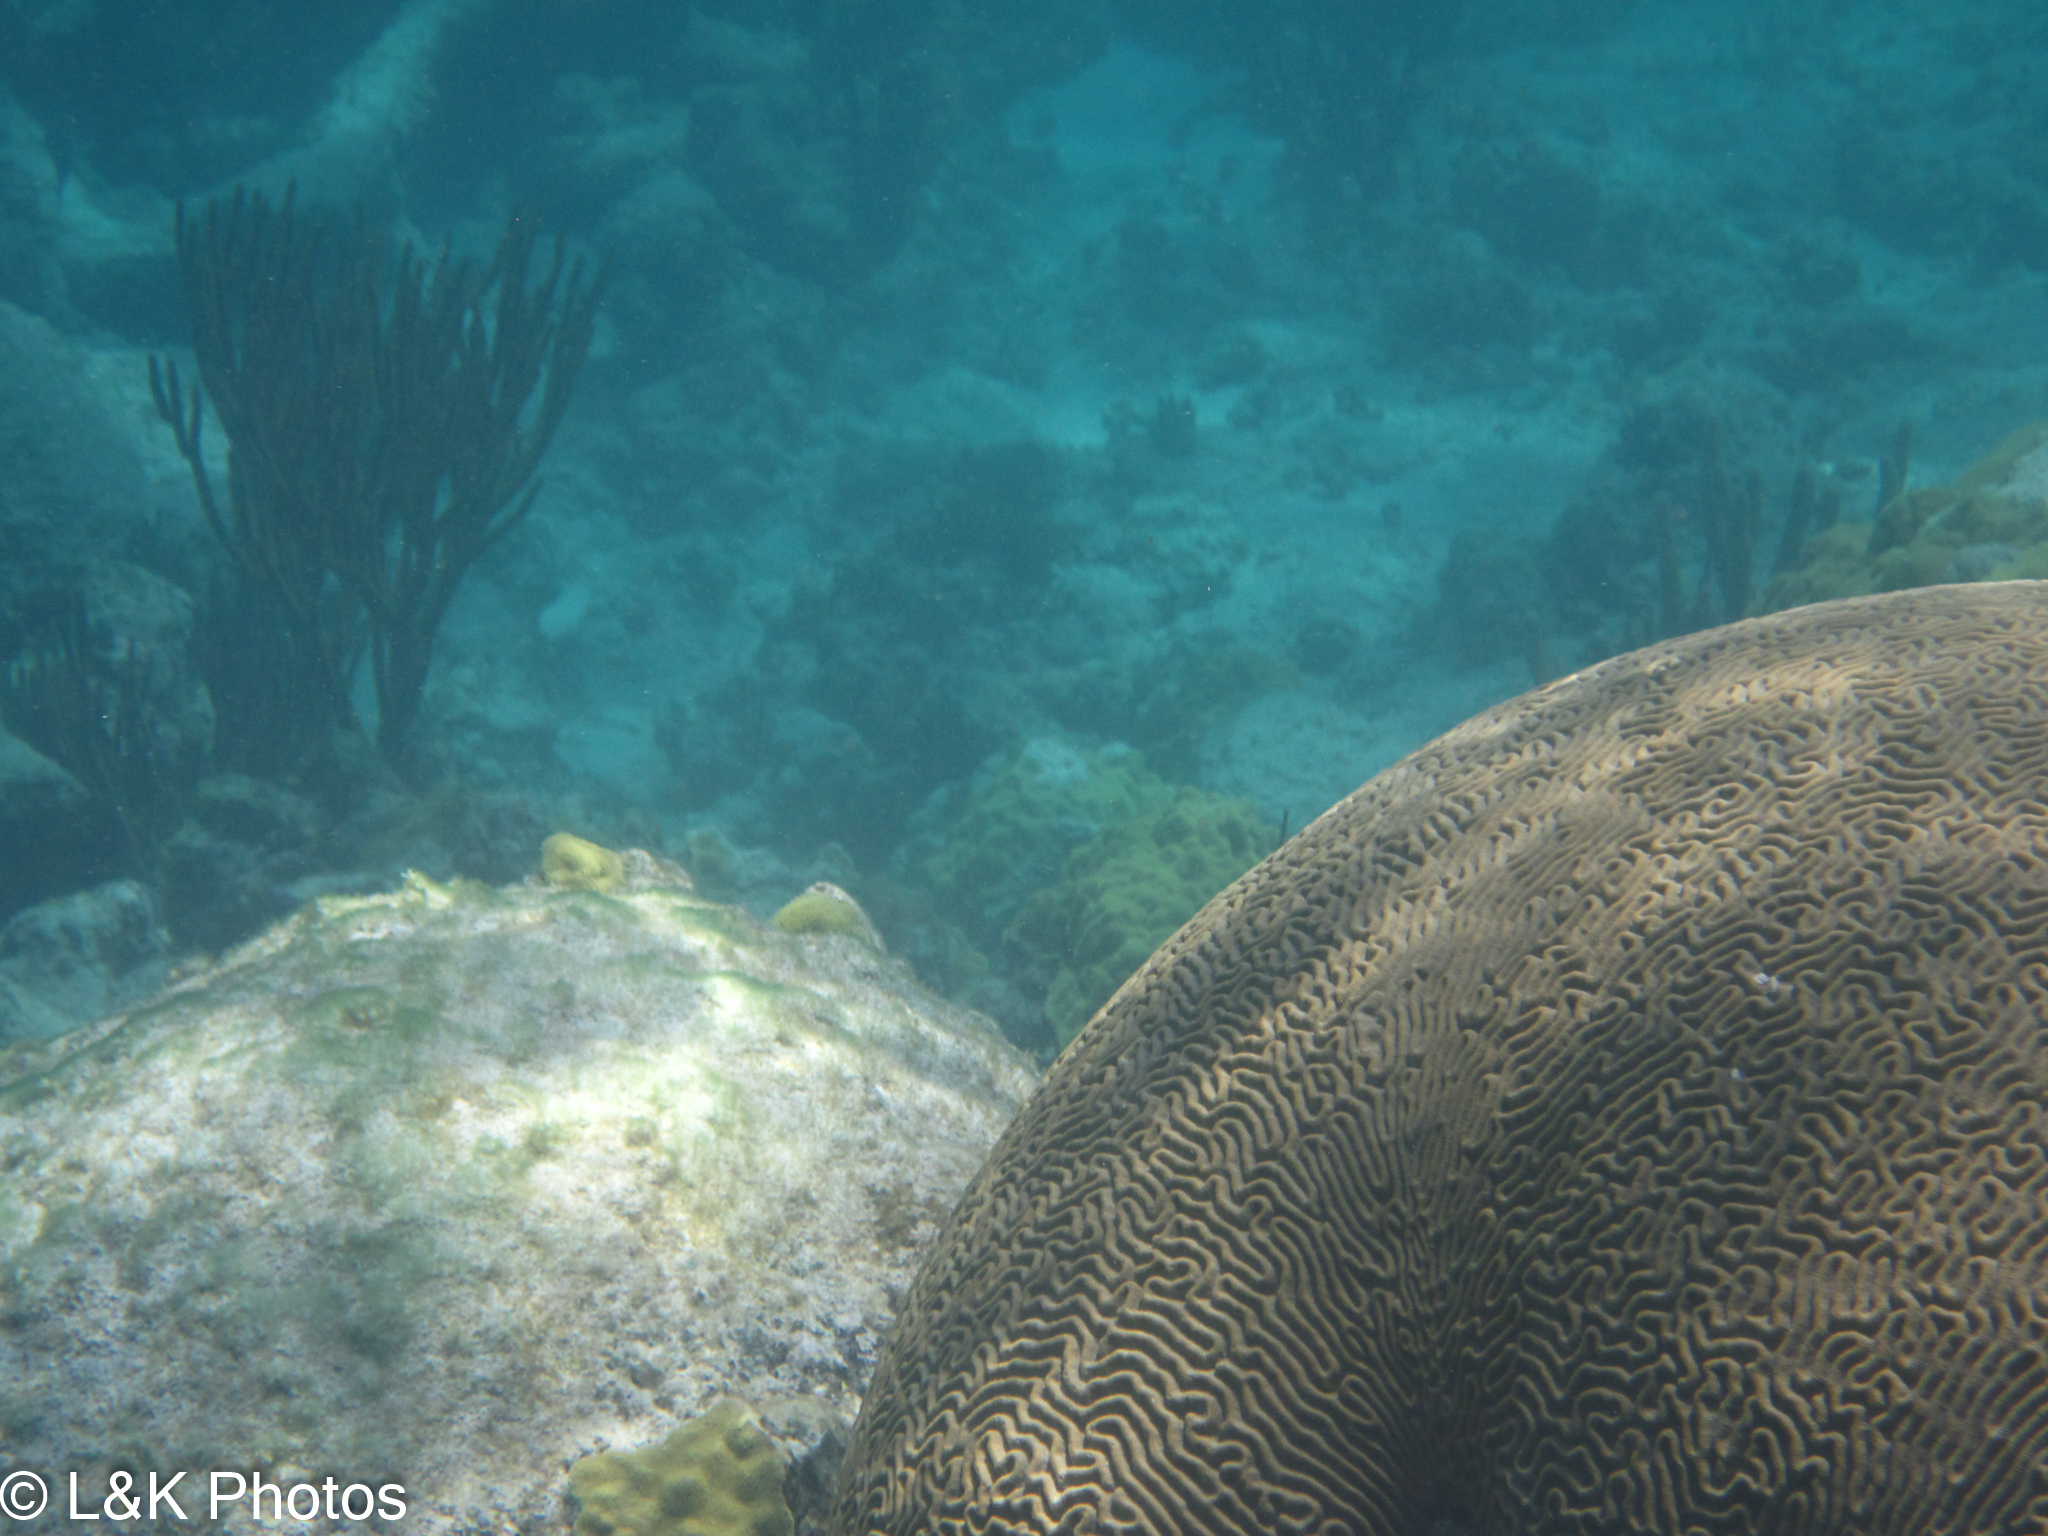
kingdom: Animalia
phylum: Cnidaria
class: Anthozoa
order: Scleractinia
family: Faviidae
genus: Pseudodiploria
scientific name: Pseudodiploria strigosa
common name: Symmetrical brain coral
